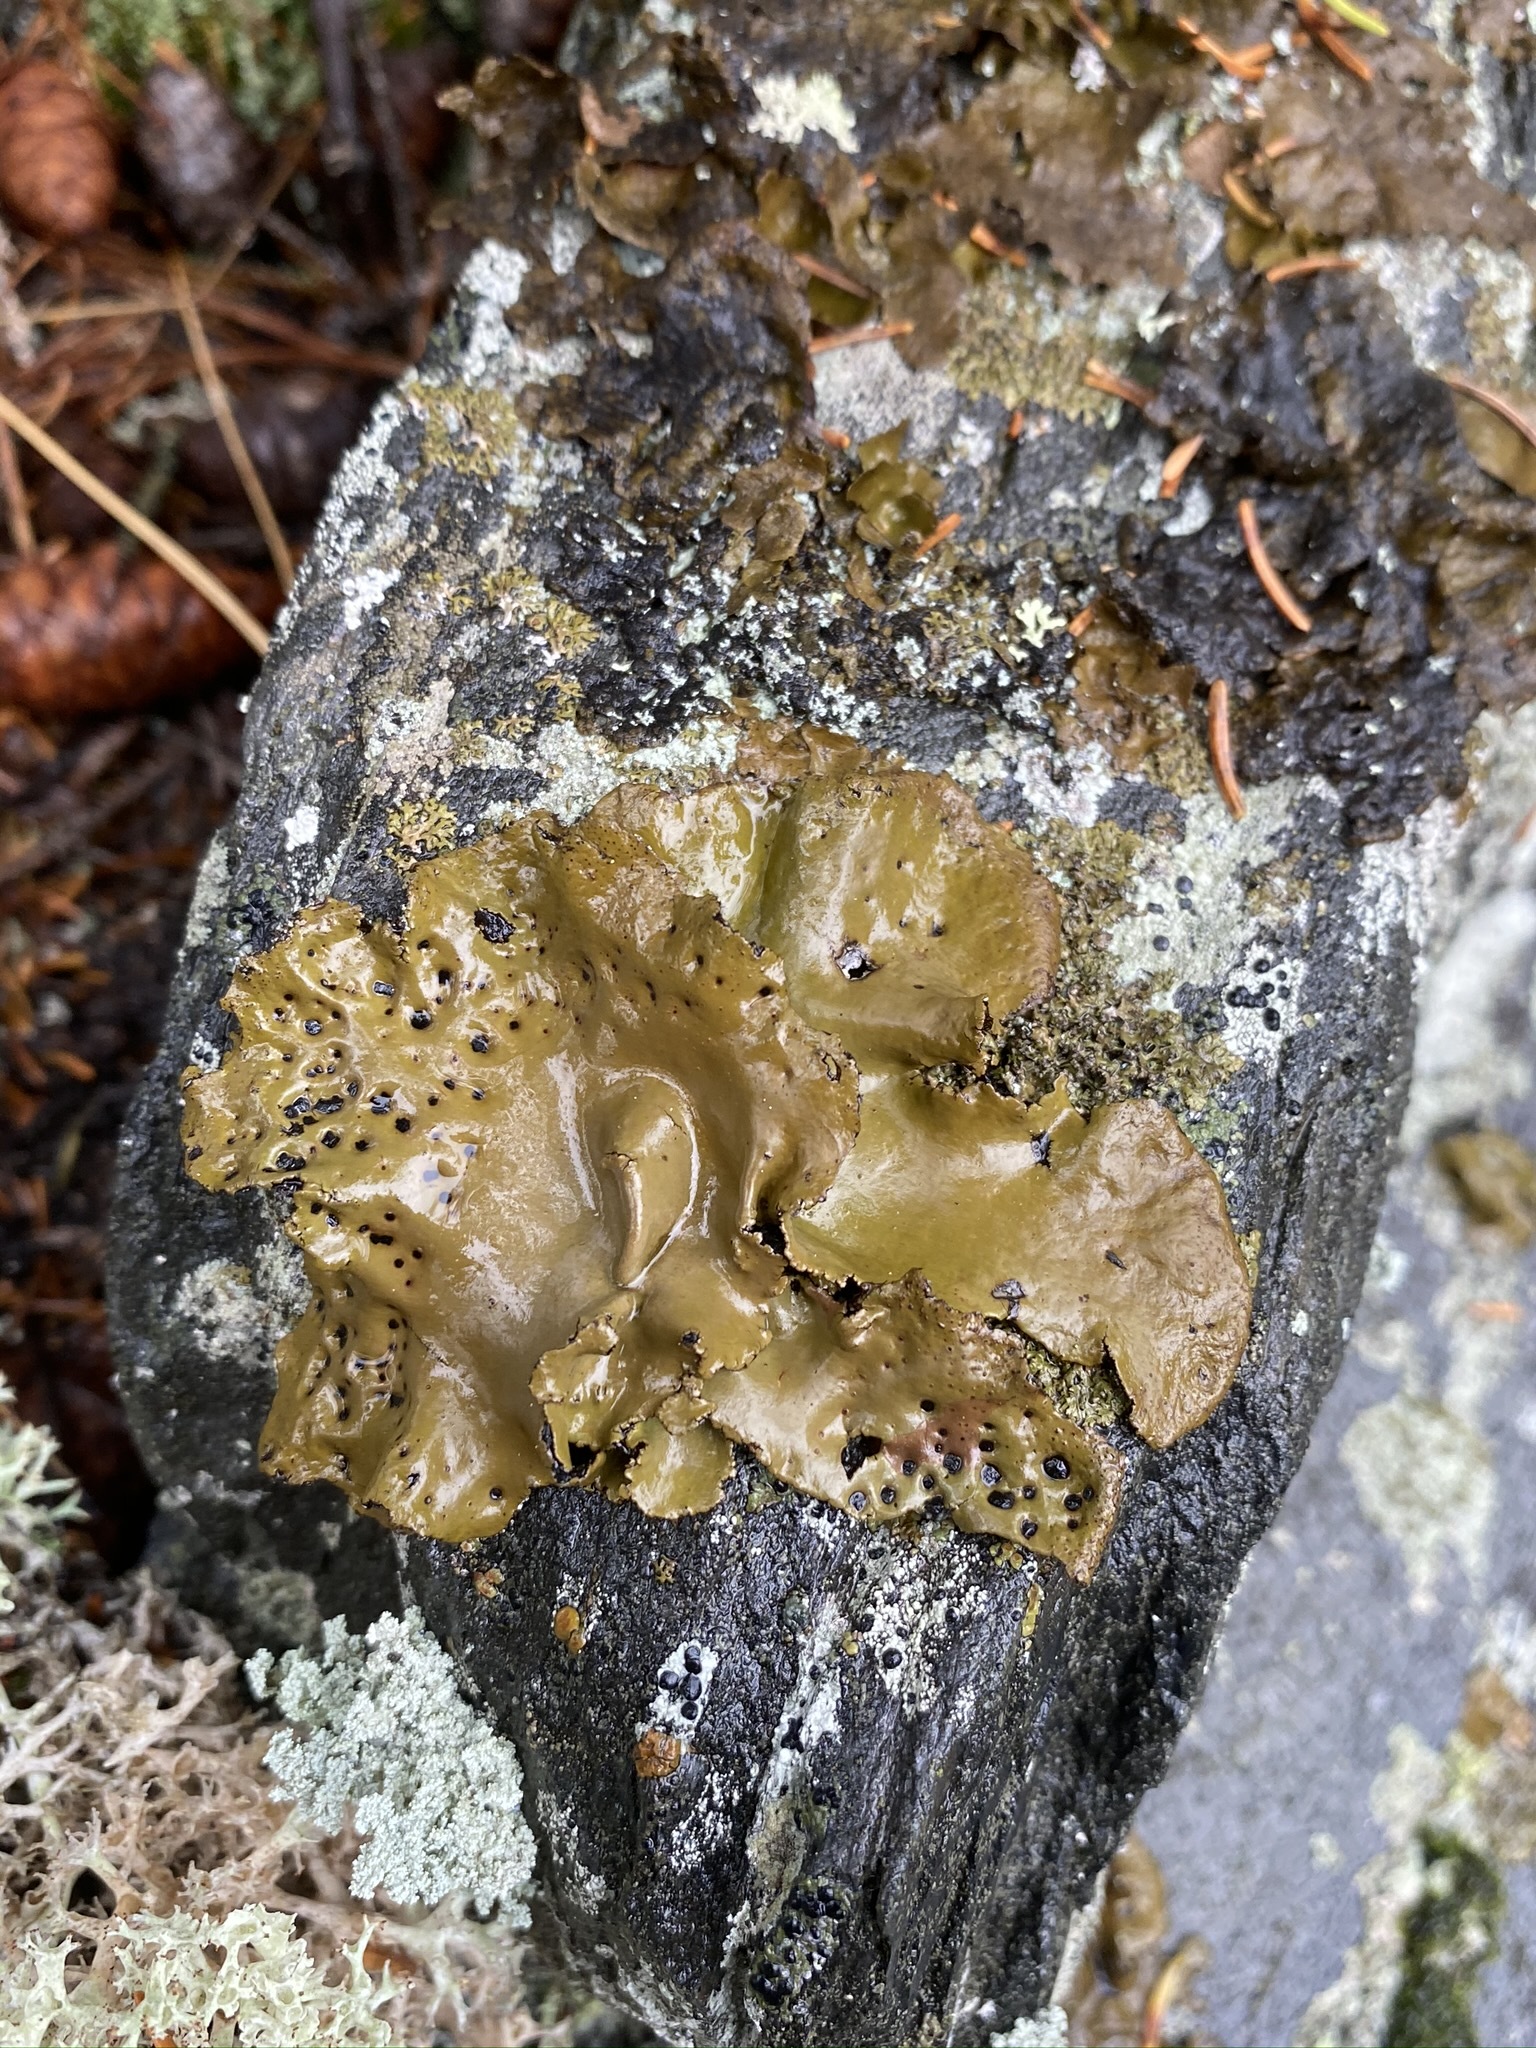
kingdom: Fungi
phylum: Ascomycota
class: Lecanoromycetes
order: Umbilicariales
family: Umbilicariaceae
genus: Umbilicaria
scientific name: Umbilicaria muhlenbergii
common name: Lesser rocktripe
